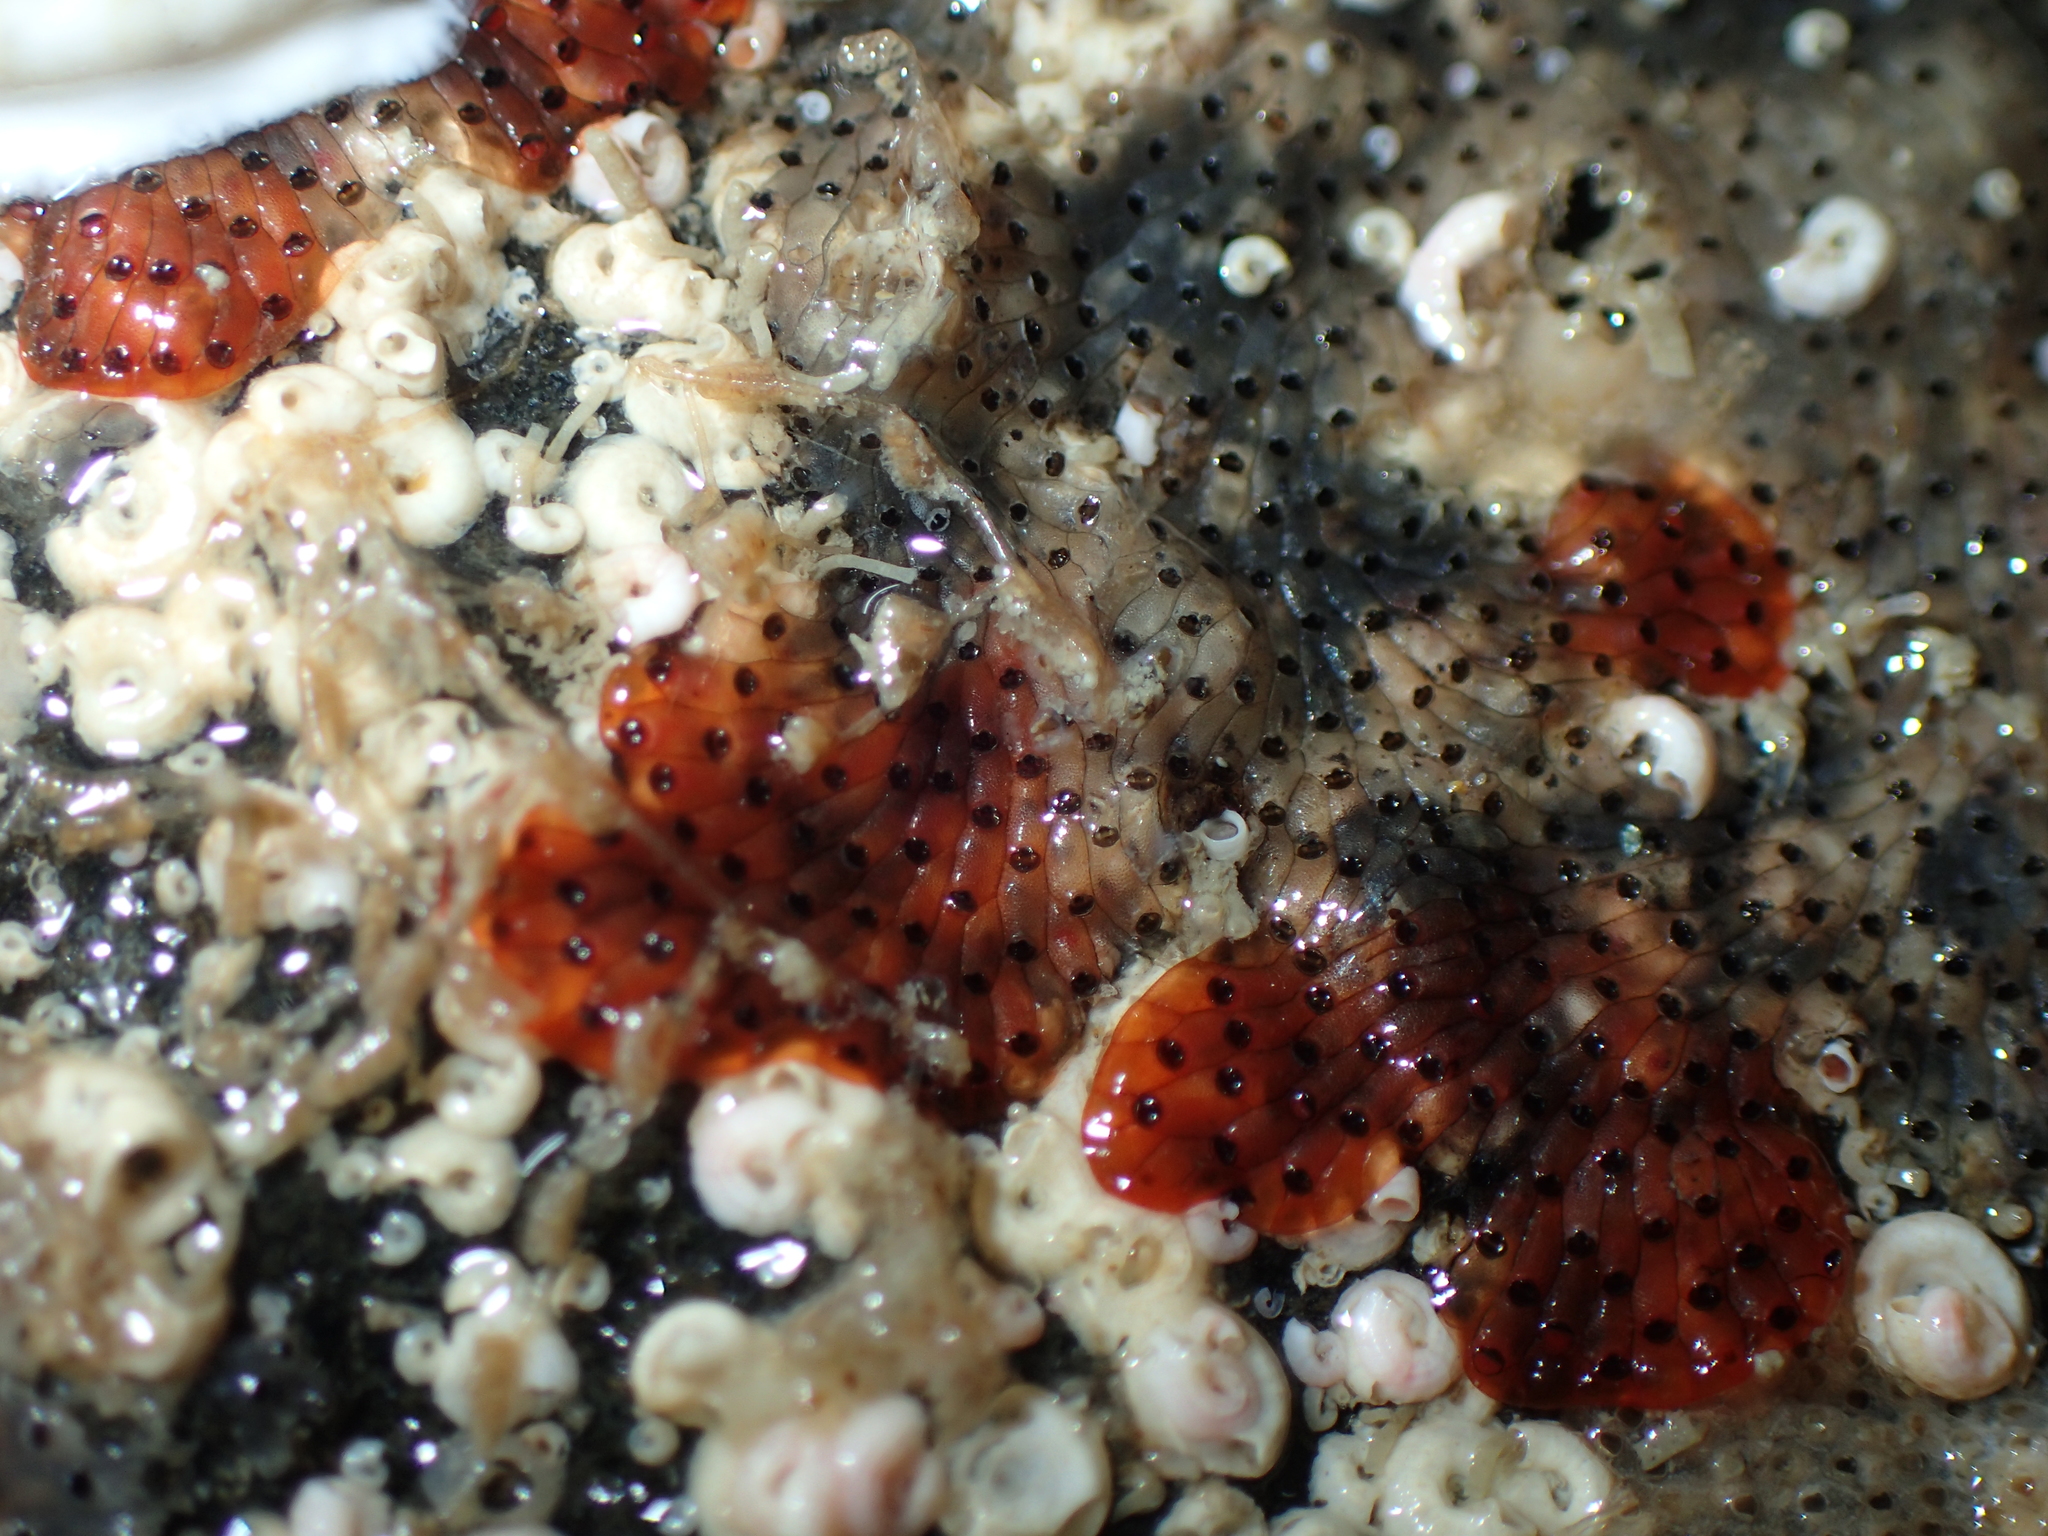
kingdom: Animalia
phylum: Bryozoa
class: Gymnolaemata
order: Cheilostomatida
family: Watersiporidae
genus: Watersipora
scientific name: Watersipora subatra
